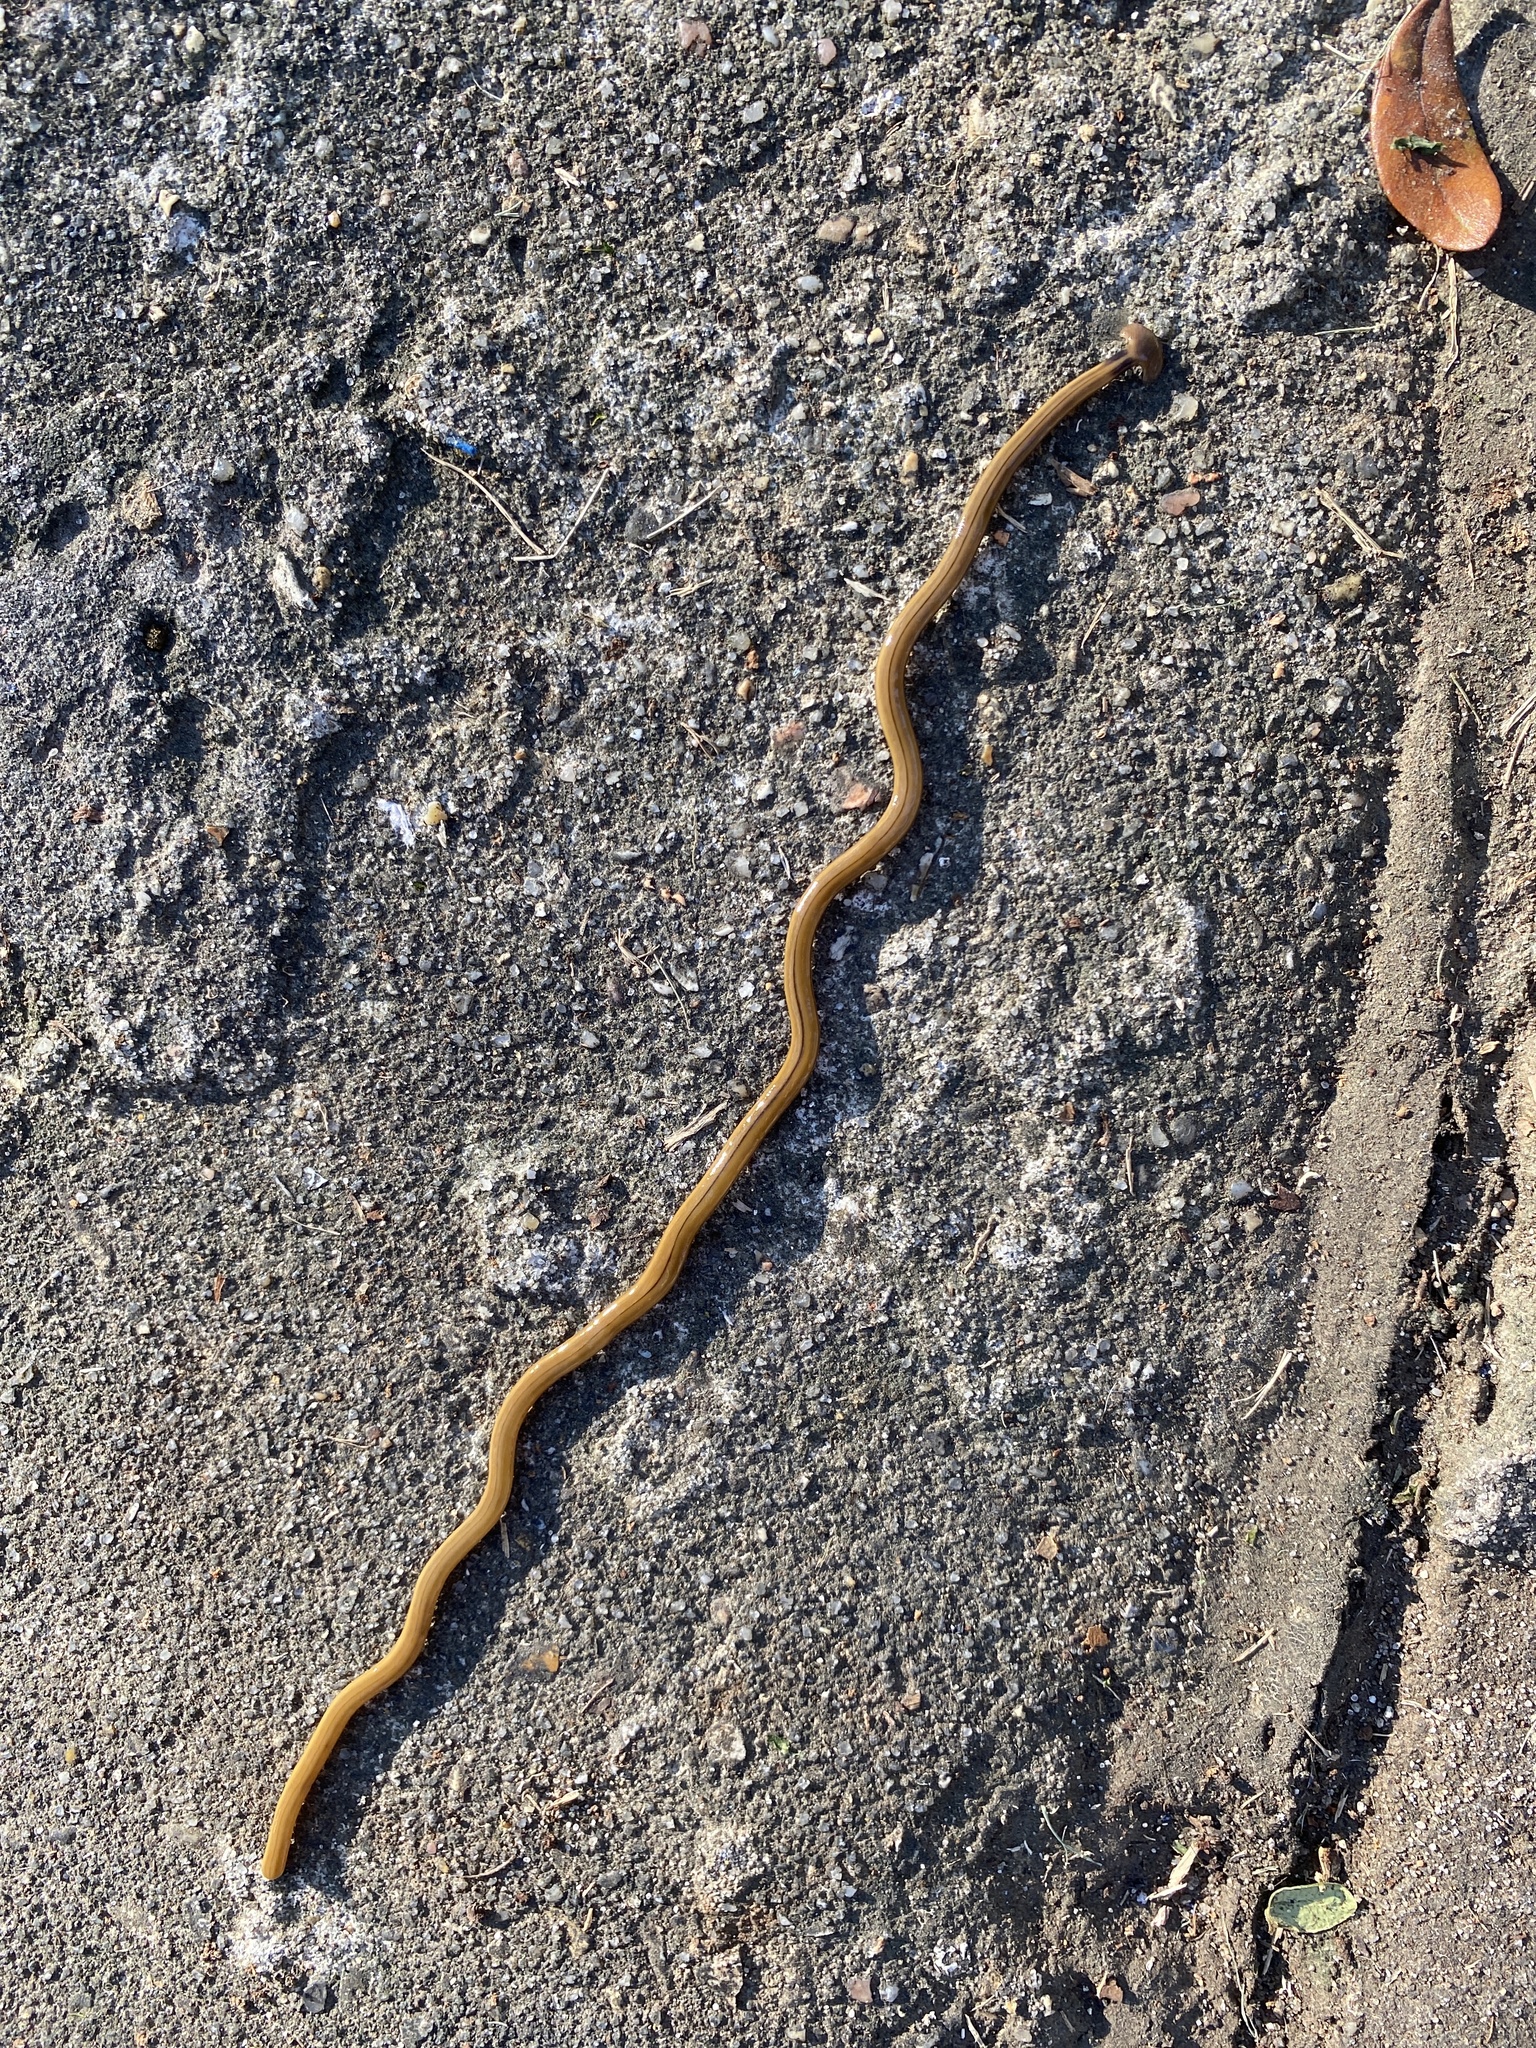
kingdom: Animalia
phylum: Platyhelminthes
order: Tricladida
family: Geoplanidae
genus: Bipalium
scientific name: Bipalium kewense
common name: Hammerhead flatworm
